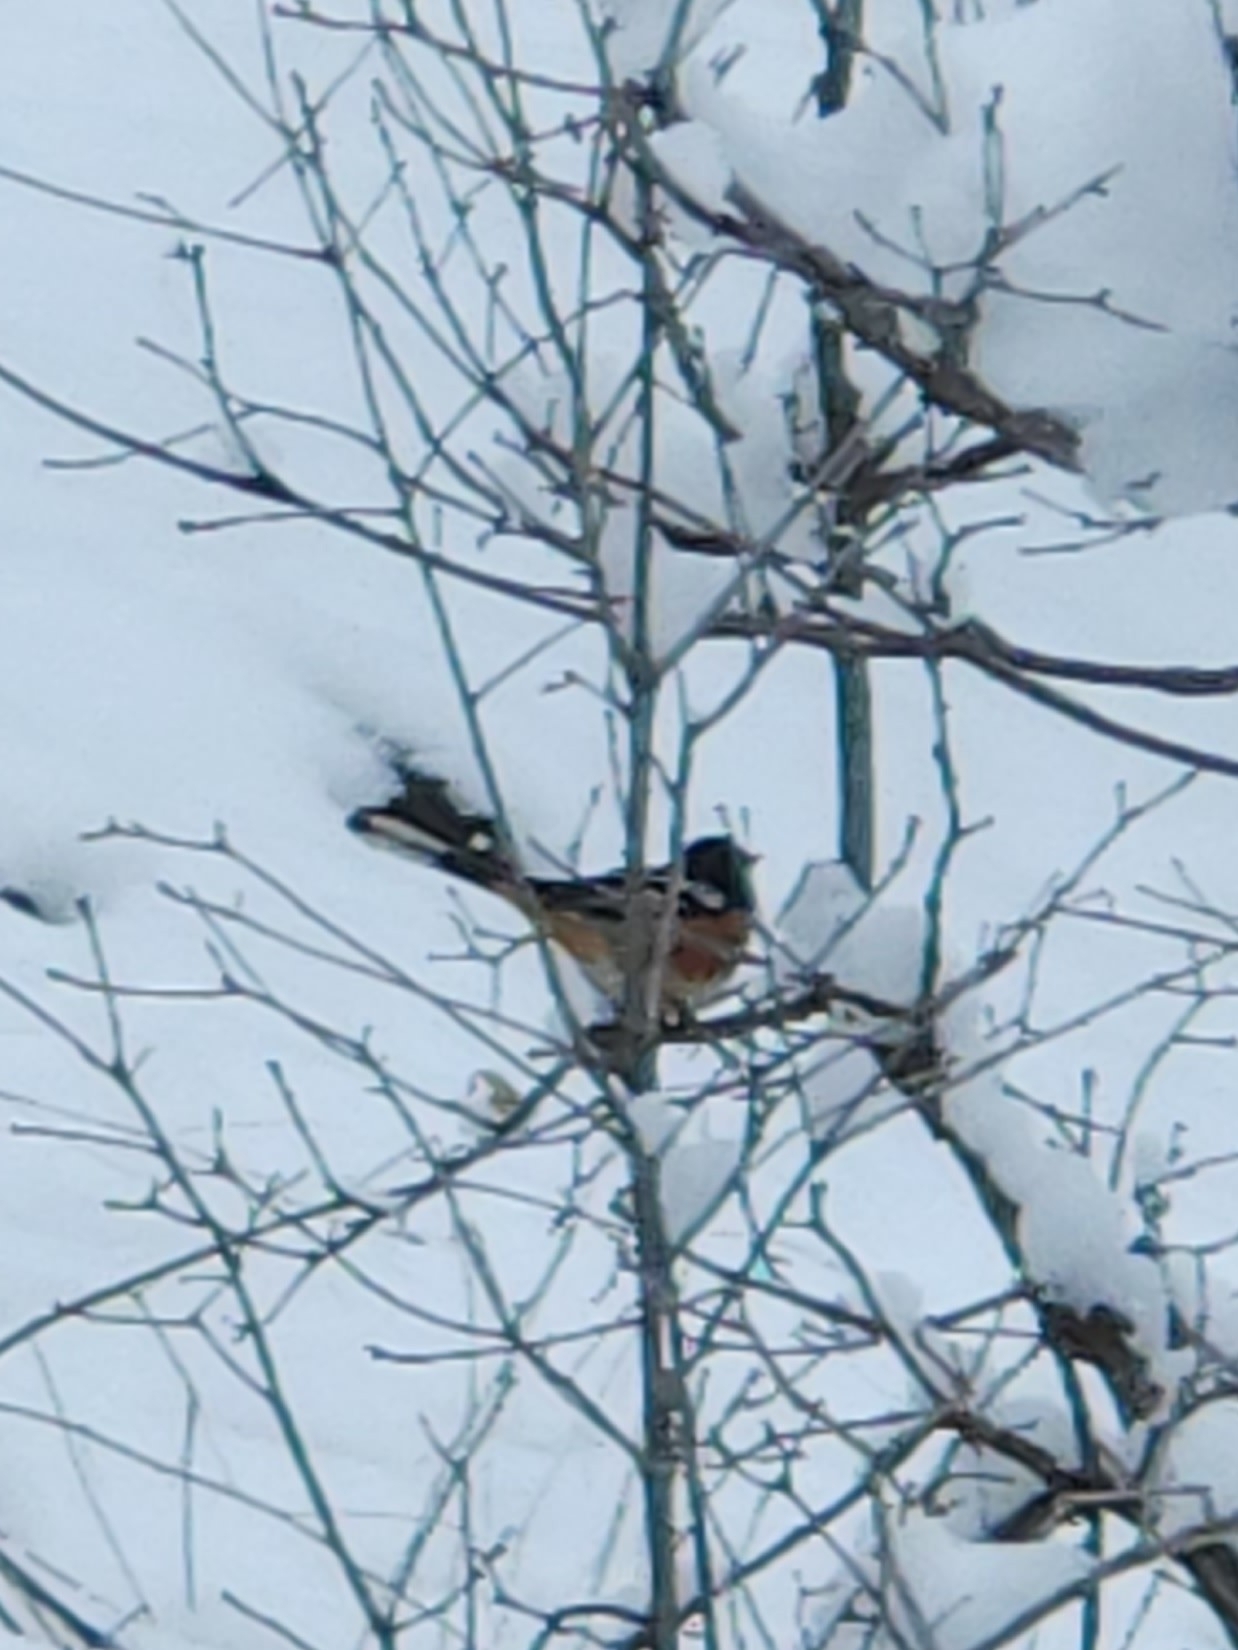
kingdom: Animalia
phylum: Chordata
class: Aves
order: Passeriformes
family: Passerellidae
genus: Pipilo
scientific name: Pipilo maculatus
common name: Spotted towhee
